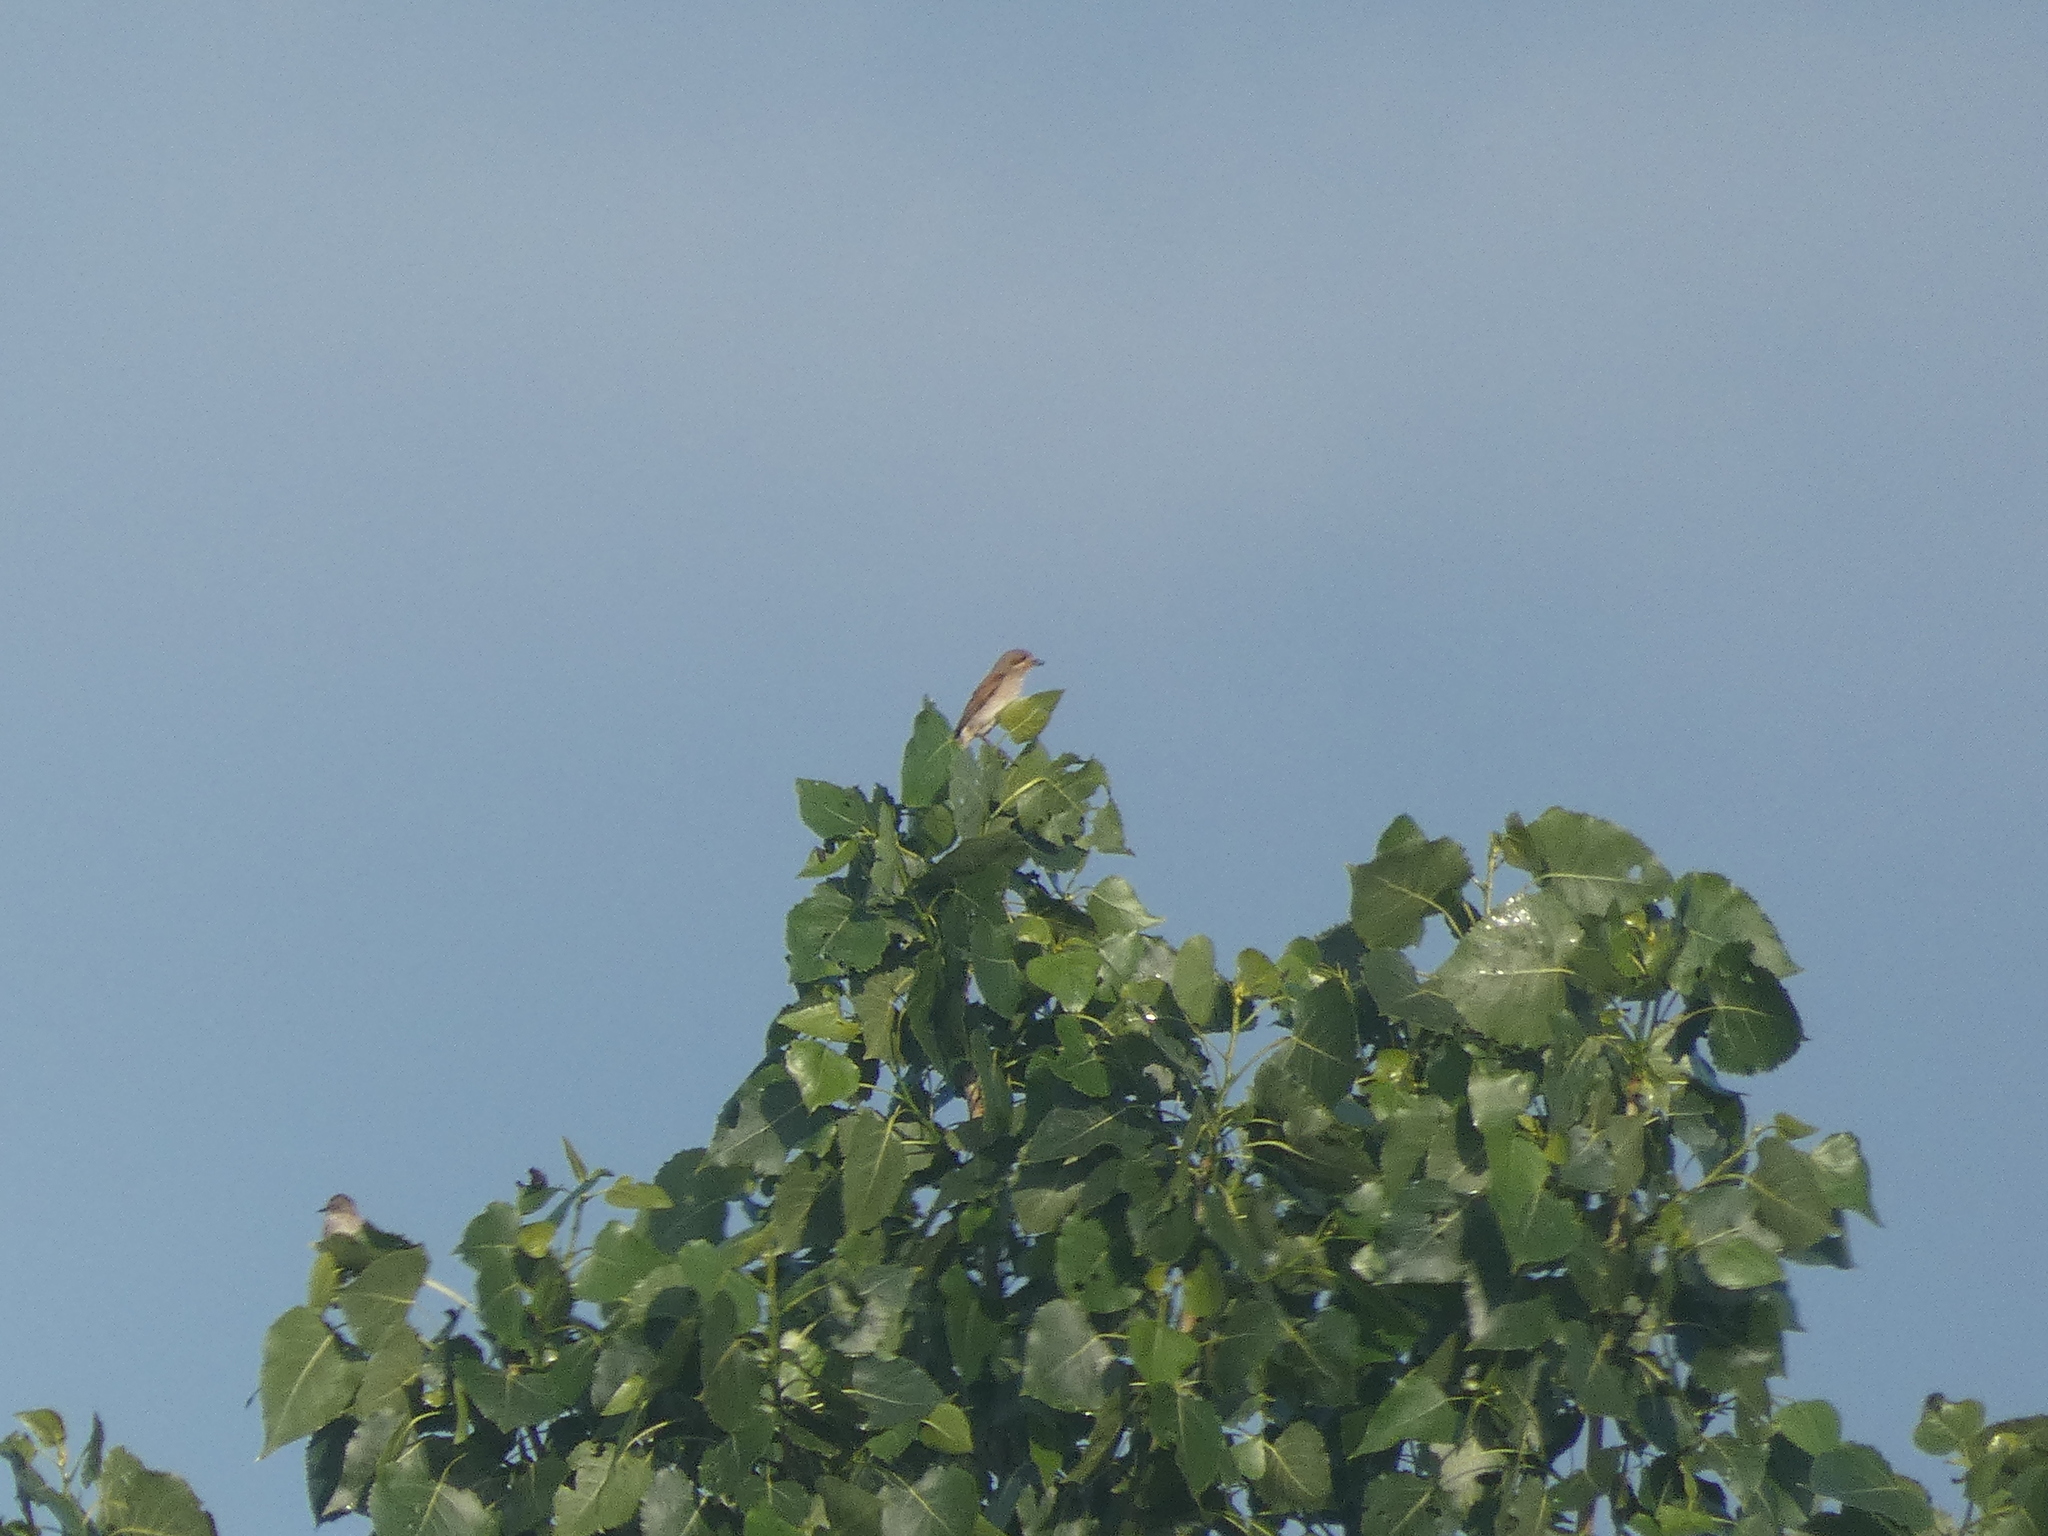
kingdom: Animalia
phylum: Chordata
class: Aves
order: Passeriformes
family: Laniidae
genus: Lanius
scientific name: Lanius collurio
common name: Red-backed shrike
